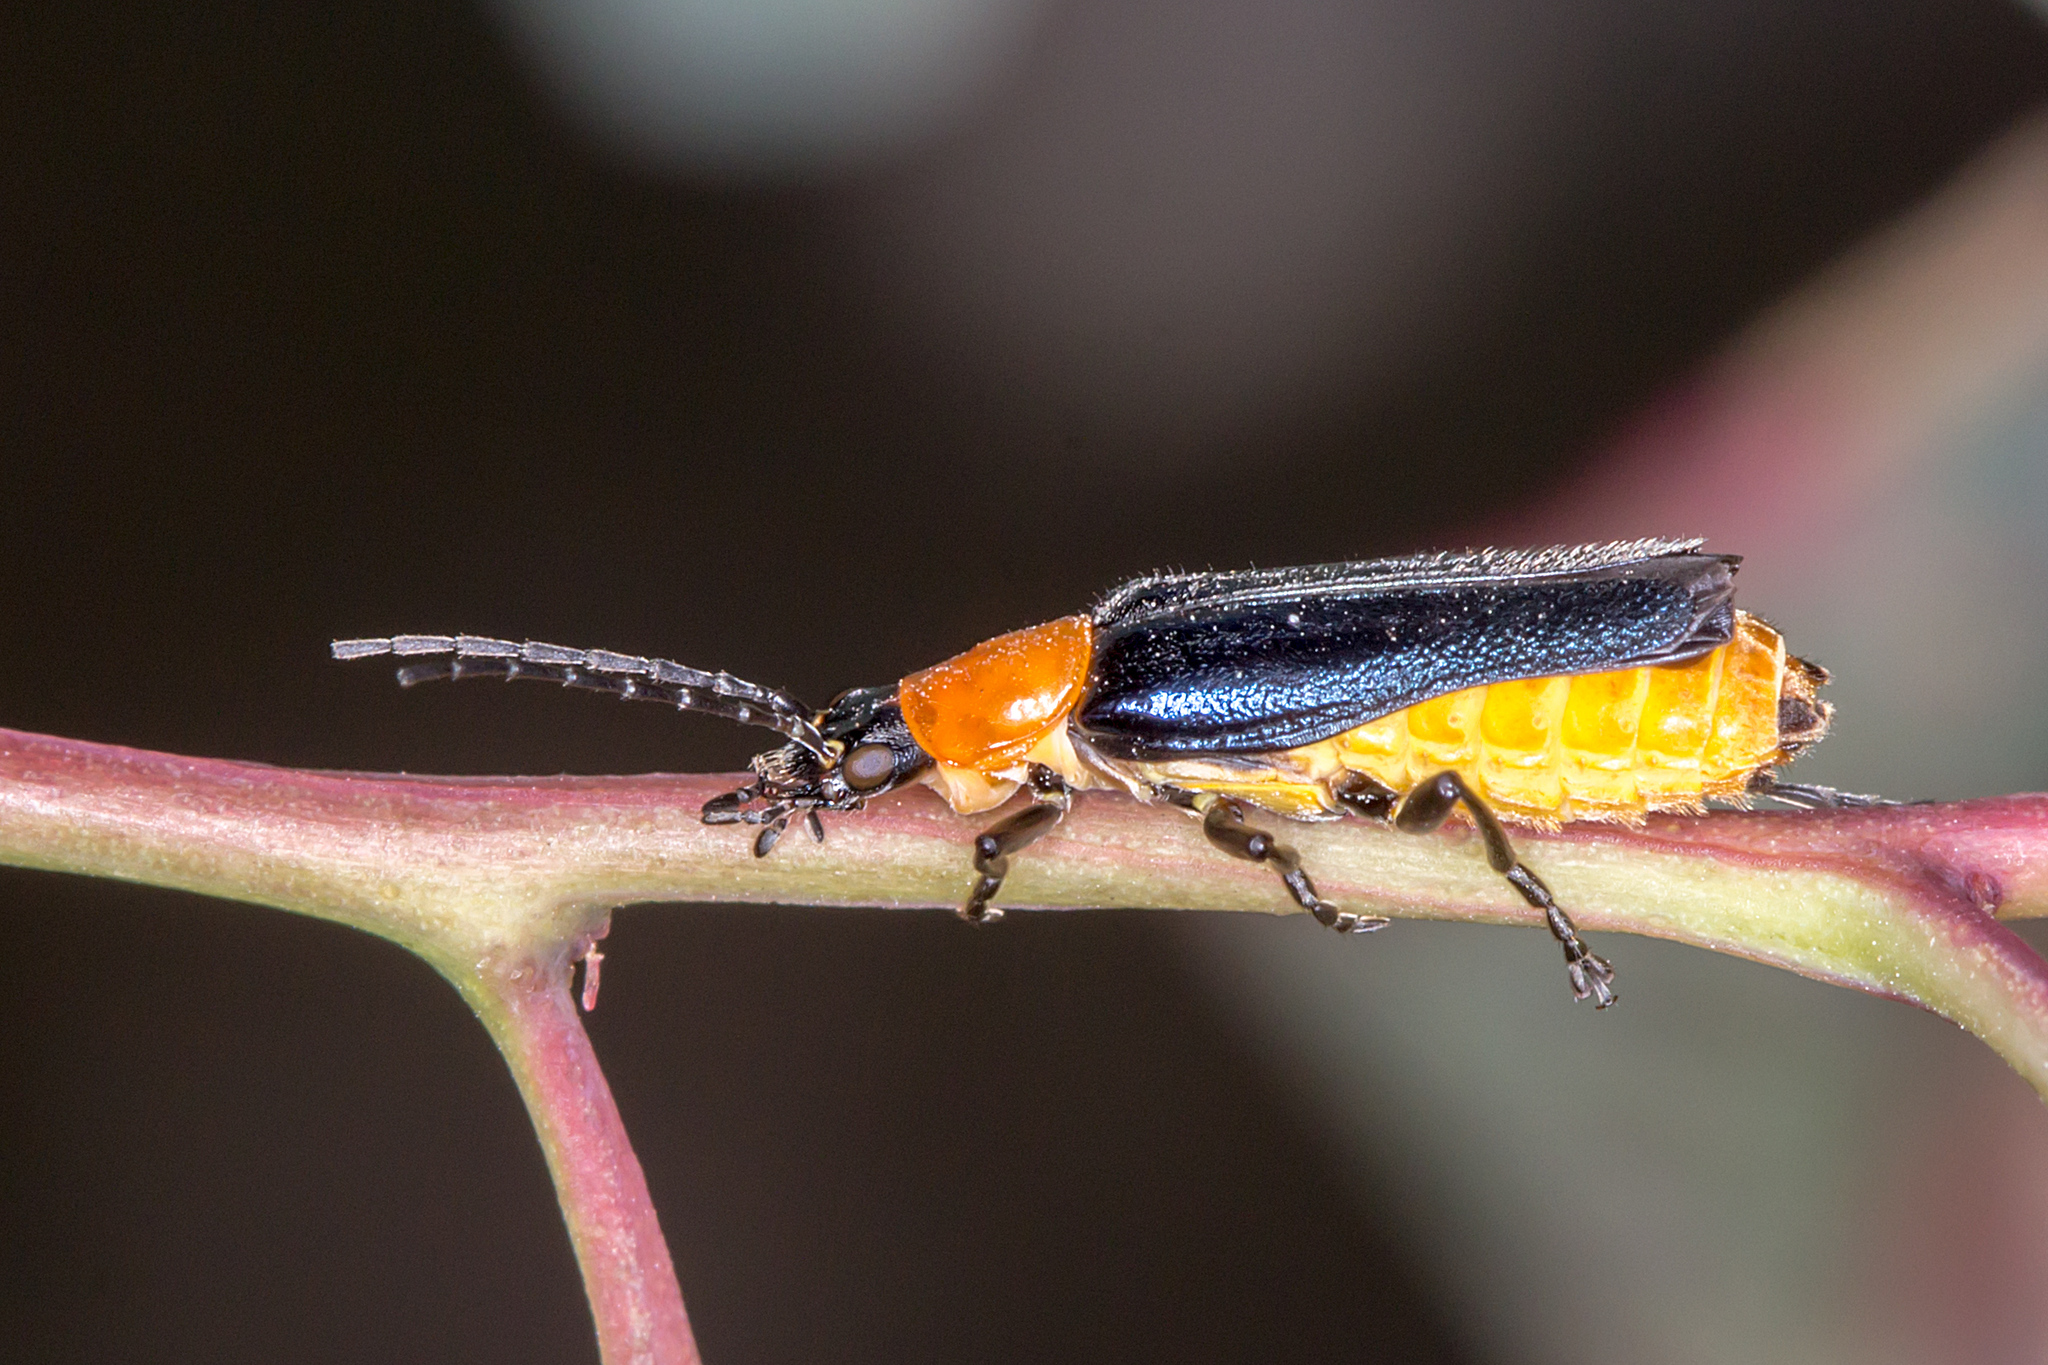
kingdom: Animalia
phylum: Arthropoda
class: Insecta
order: Coleoptera
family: Cantharidae
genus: Chauliognathus
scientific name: Chauliognathus
